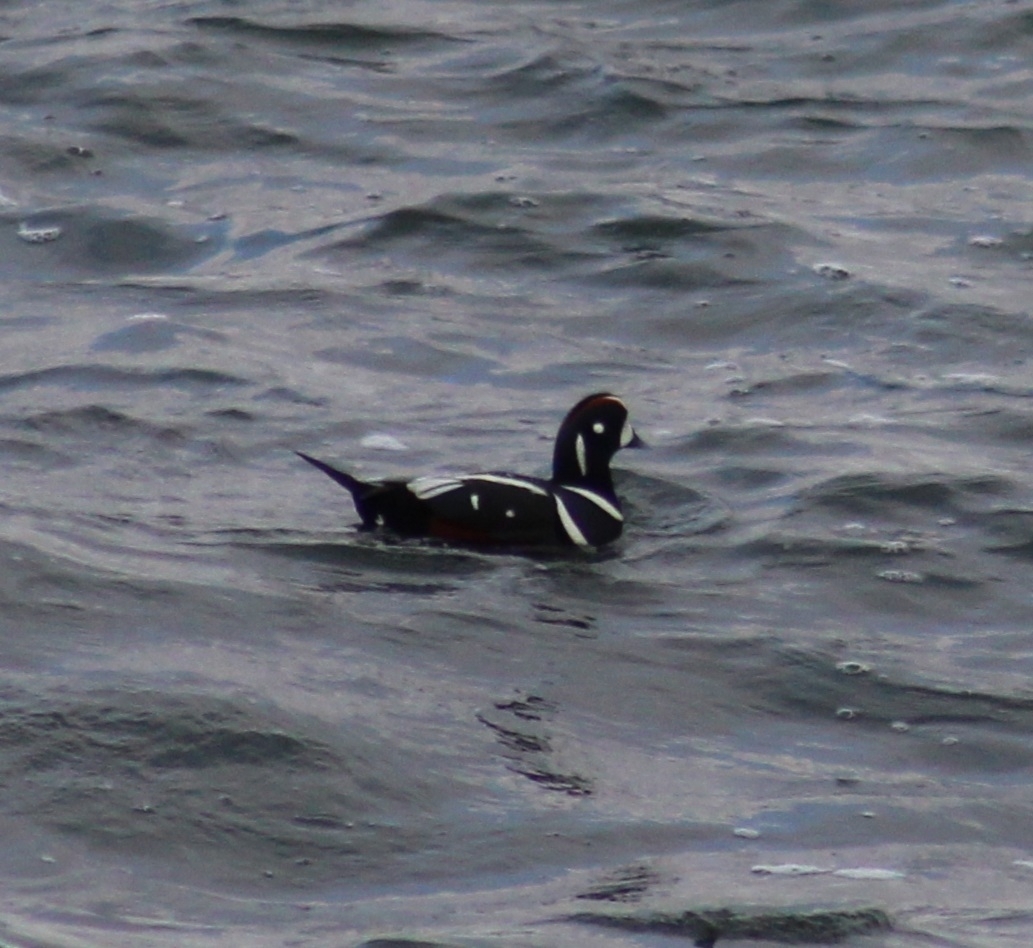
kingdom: Animalia
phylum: Chordata
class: Aves
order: Anseriformes
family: Anatidae
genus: Histrionicus
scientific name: Histrionicus histrionicus
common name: Harlequin duck
